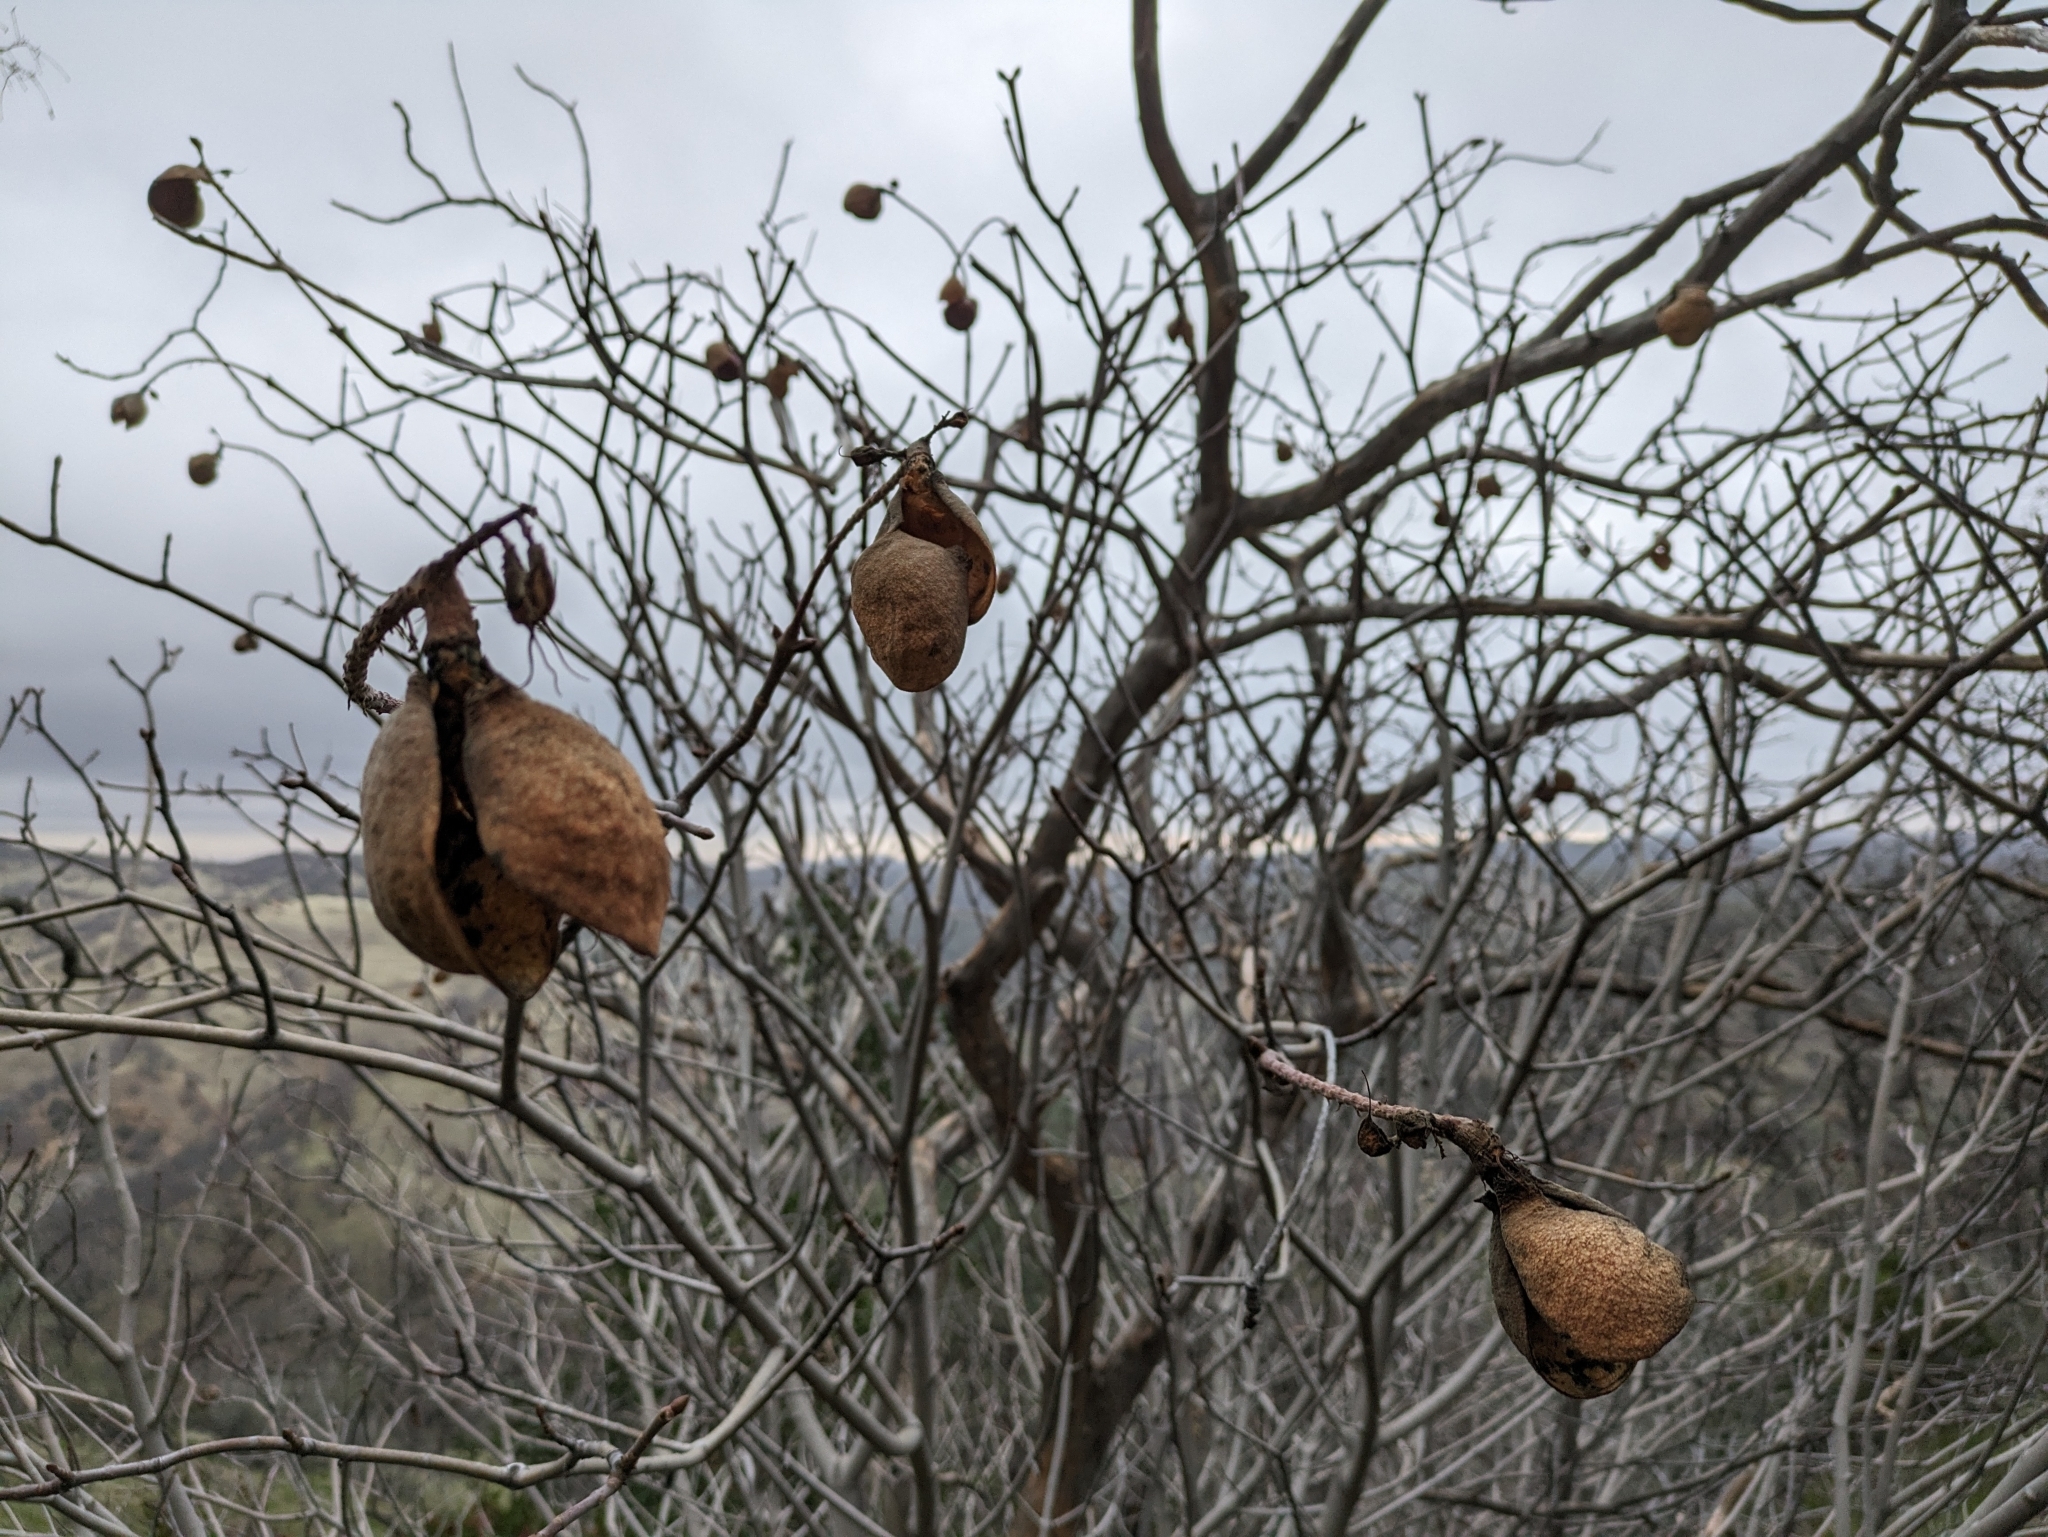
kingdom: Plantae
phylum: Tracheophyta
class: Magnoliopsida
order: Sapindales
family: Sapindaceae
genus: Aesculus
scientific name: Aesculus californica
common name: California buckeye
